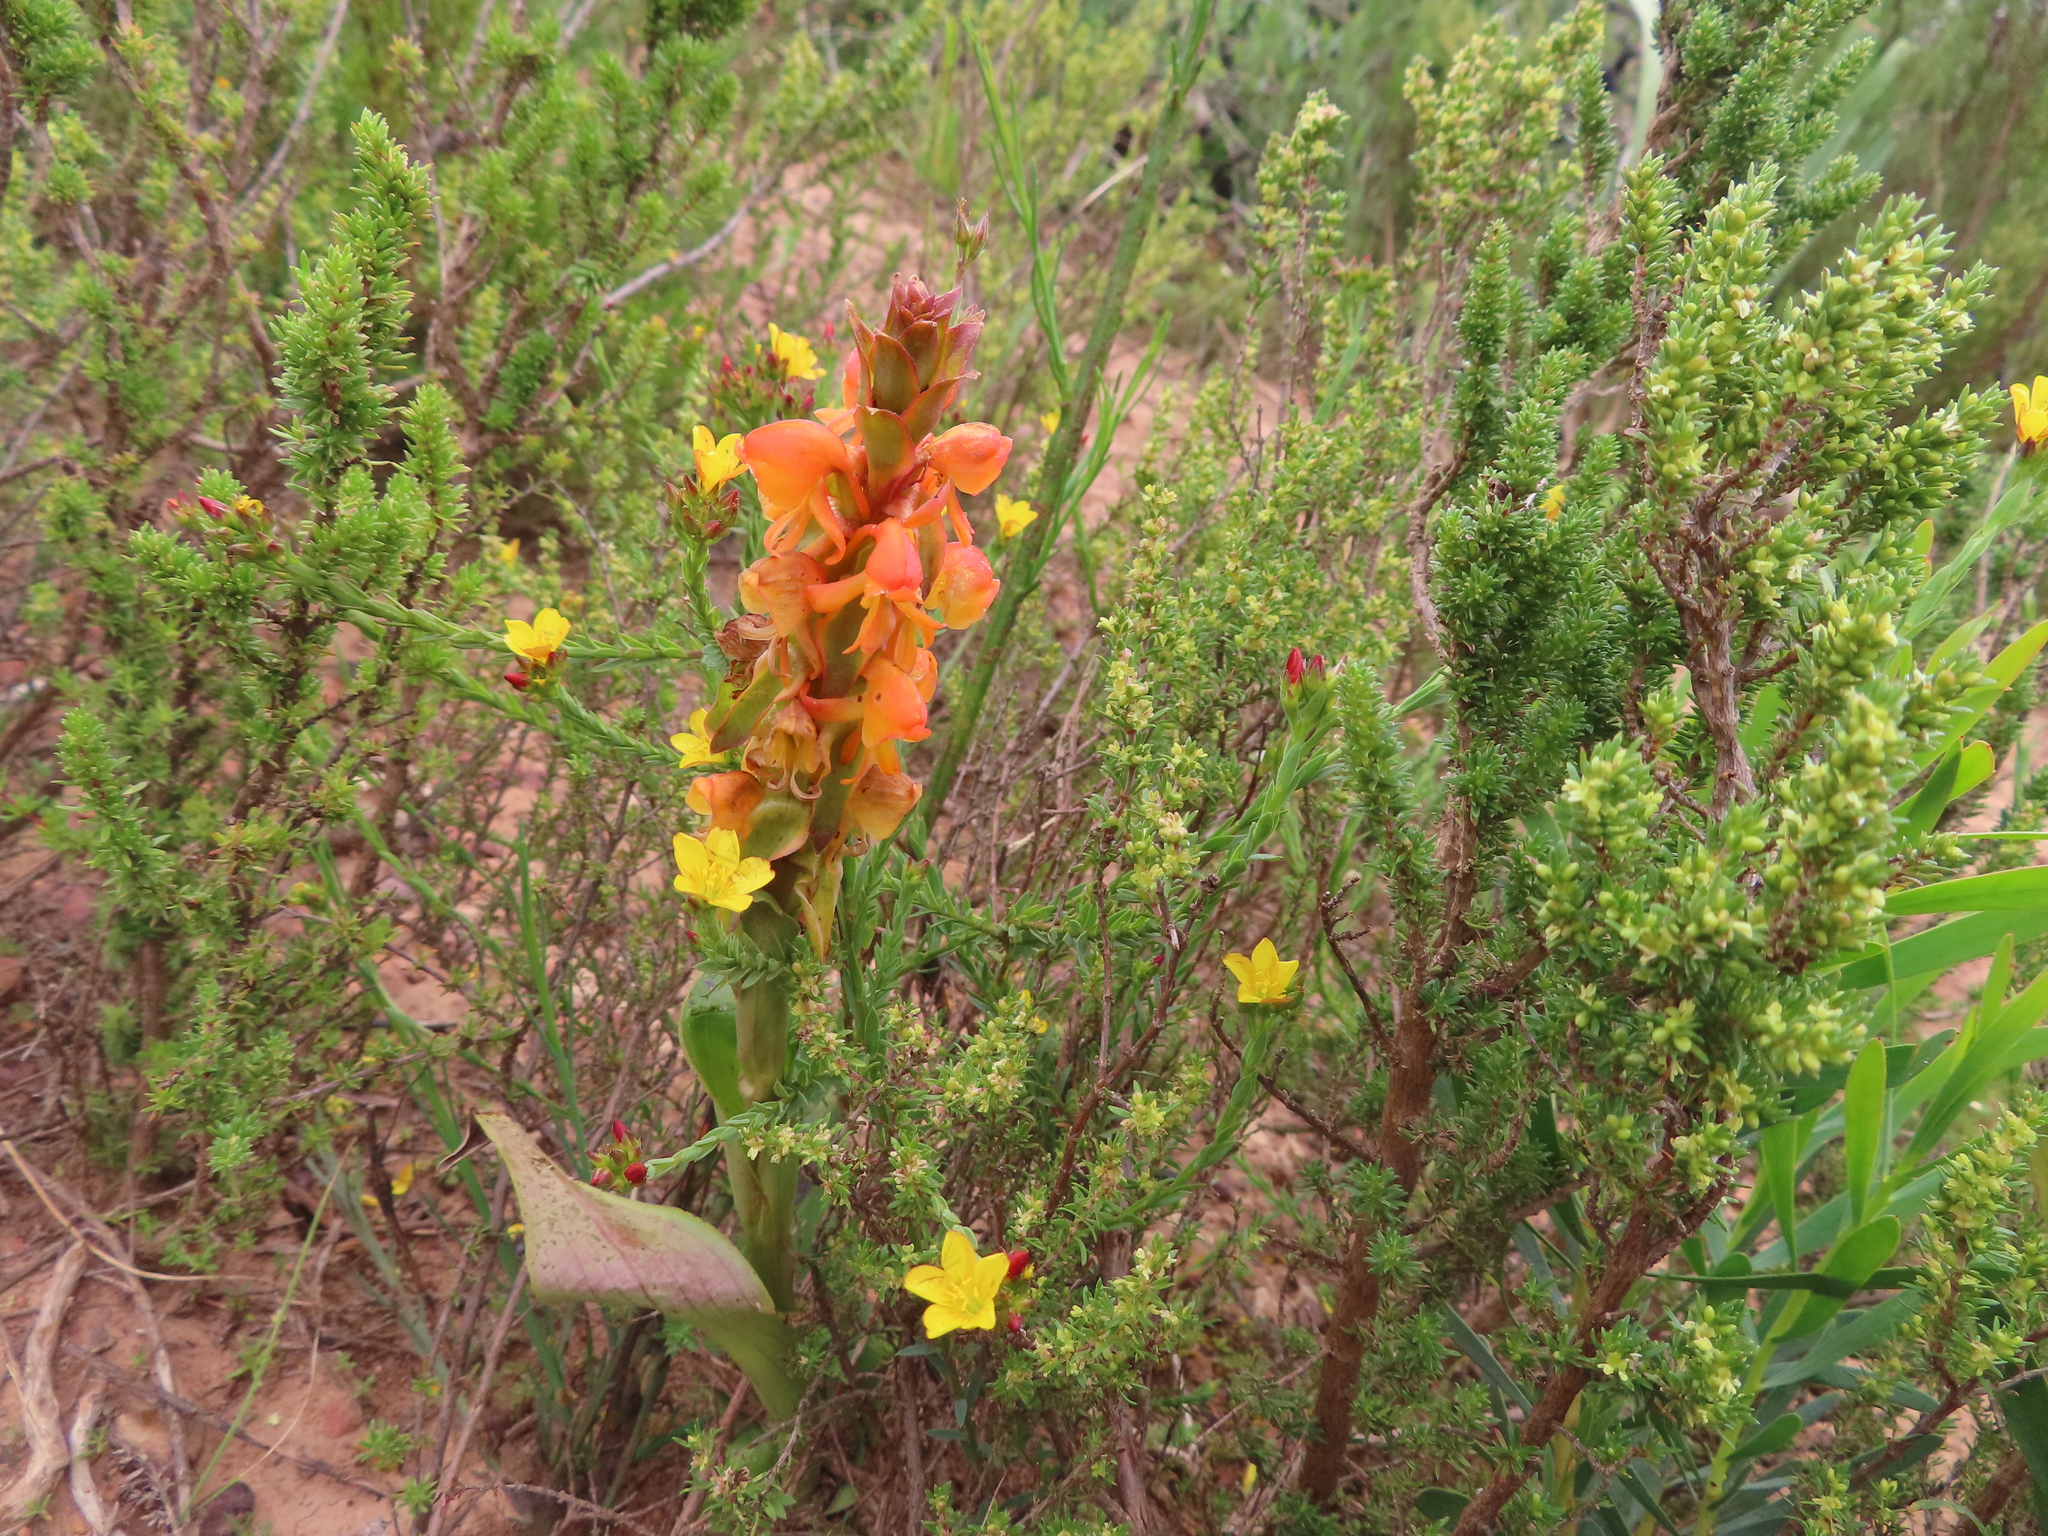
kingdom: Plantae
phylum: Tracheophyta
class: Liliopsida
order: Asparagales
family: Orchidaceae
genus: Satyrium
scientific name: Satyrium coriifolium
